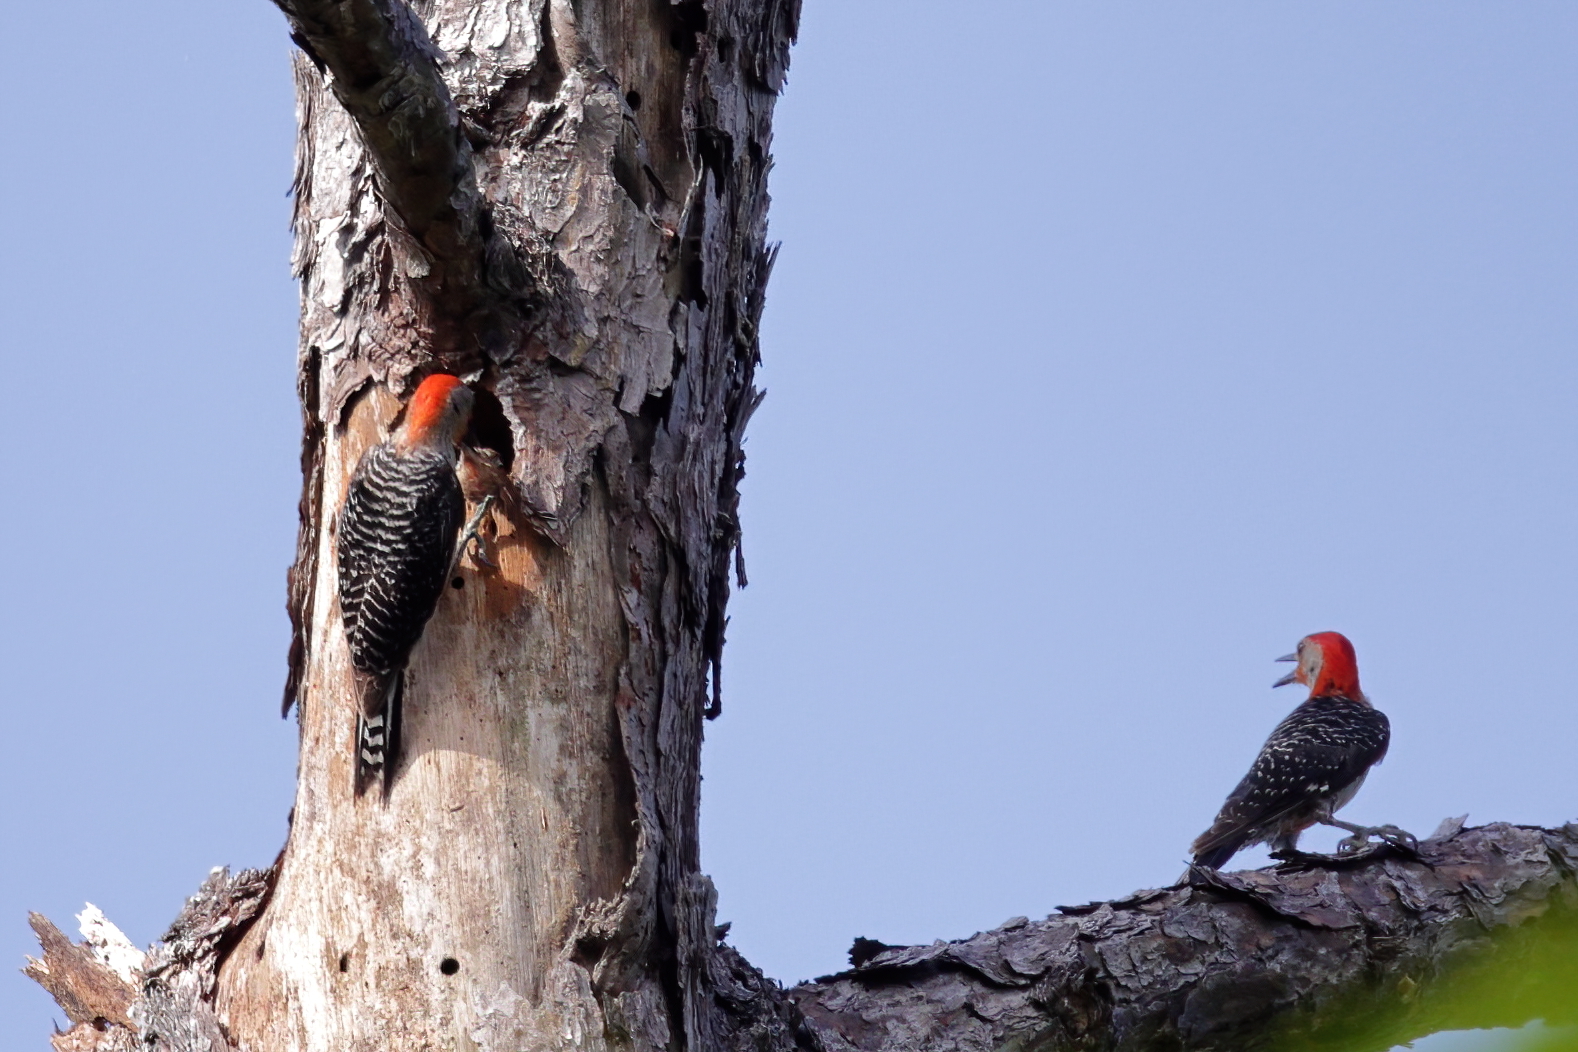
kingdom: Animalia
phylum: Chordata
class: Aves
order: Piciformes
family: Picidae
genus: Melanerpes
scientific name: Melanerpes carolinus
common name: Red-bellied woodpecker
